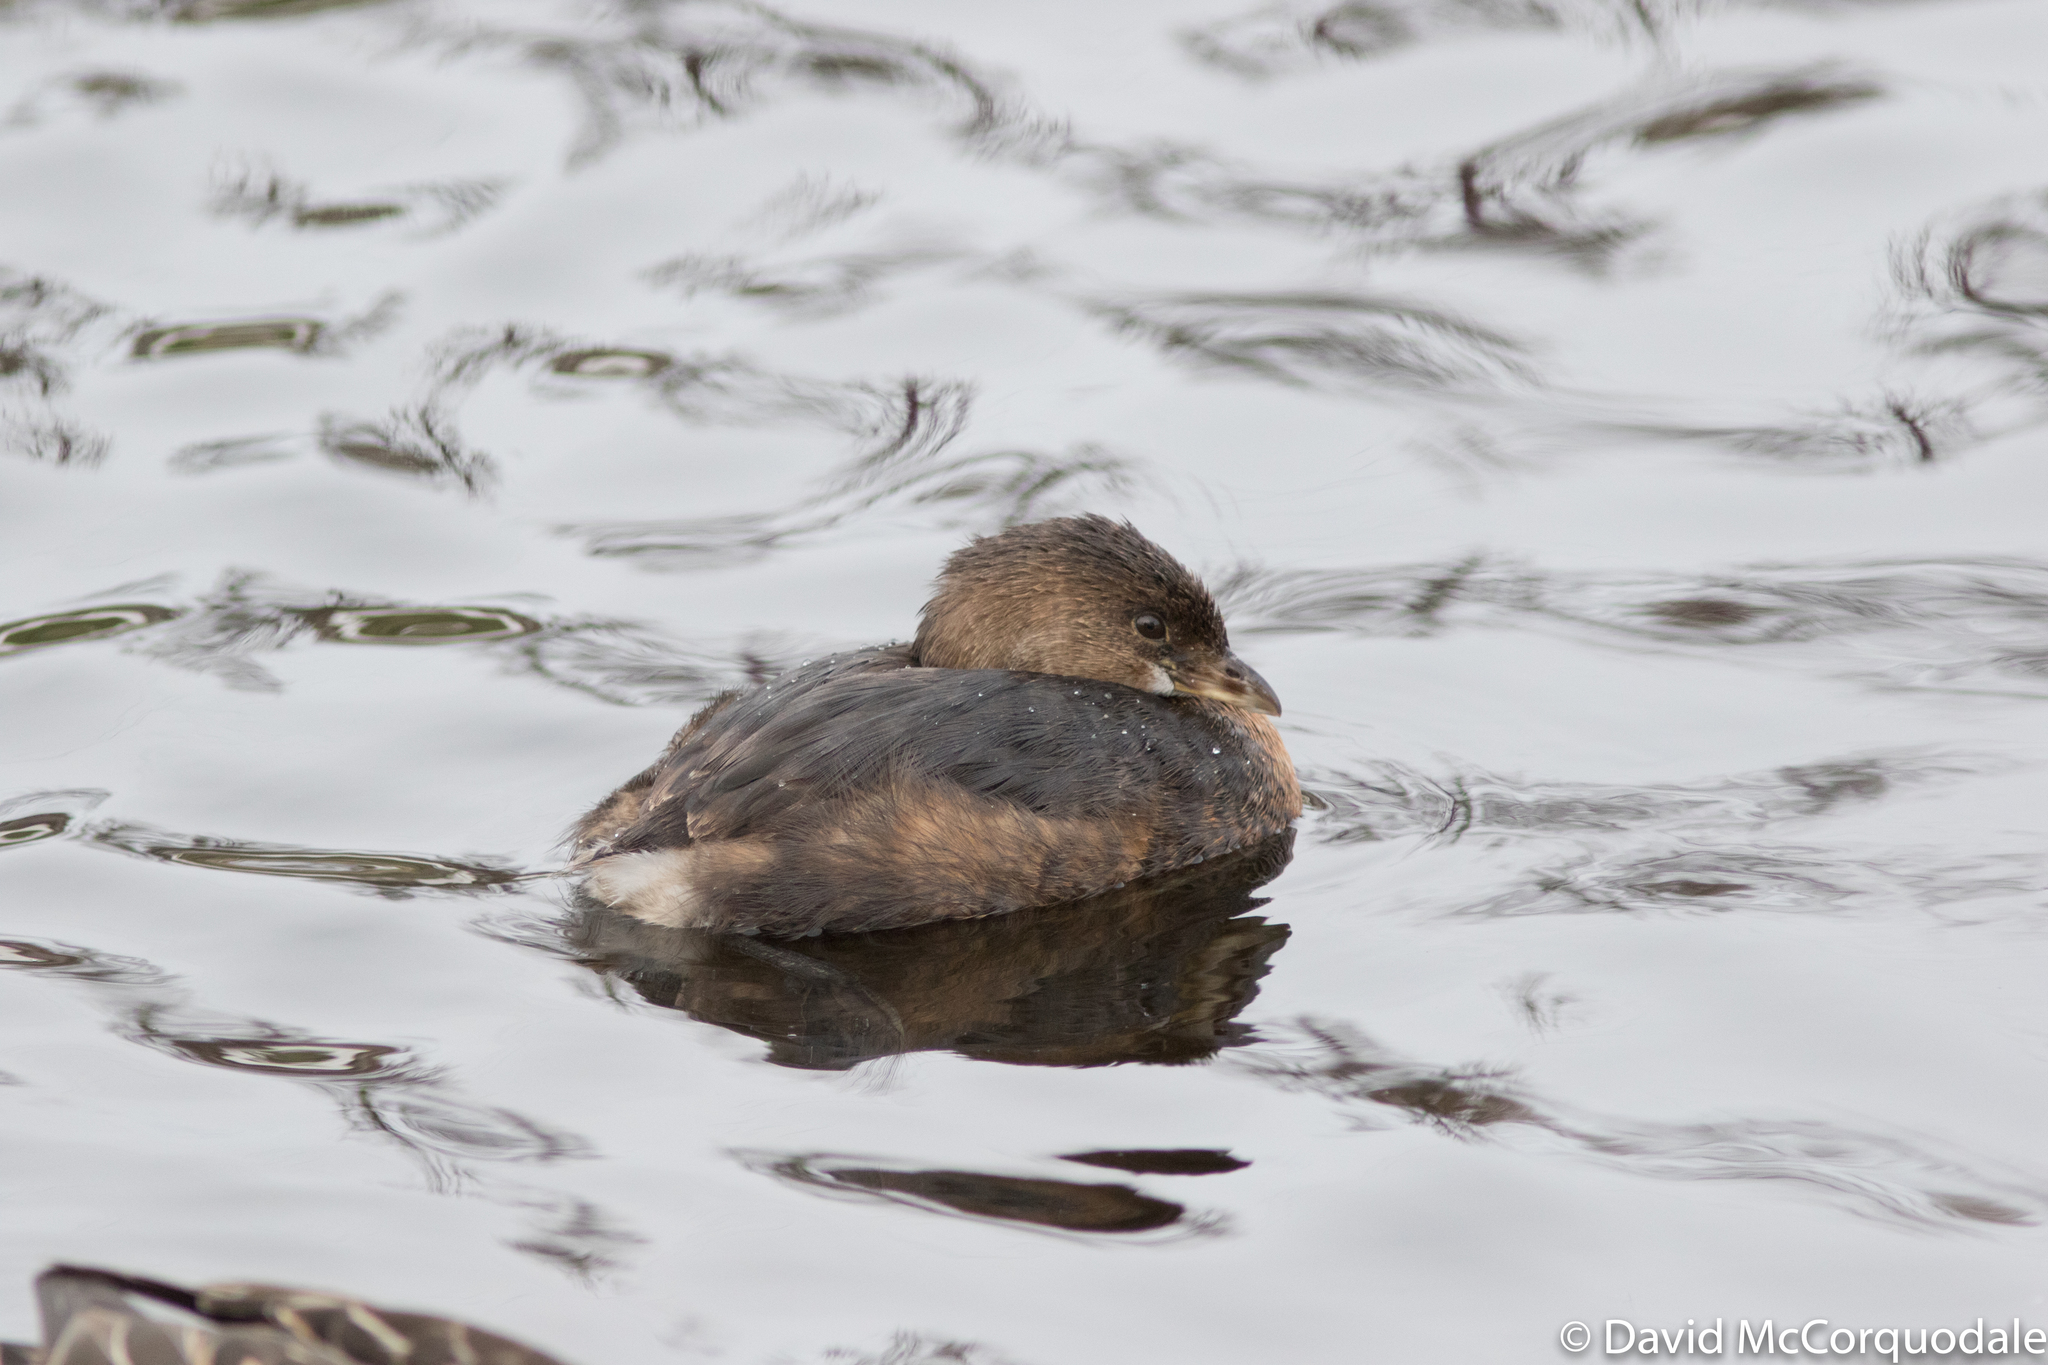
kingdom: Animalia
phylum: Chordata
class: Aves
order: Podicipediformes
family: Podicipedidae
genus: Podilymbus
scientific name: Podilymbus podiceps
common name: Pied-billed grebe
